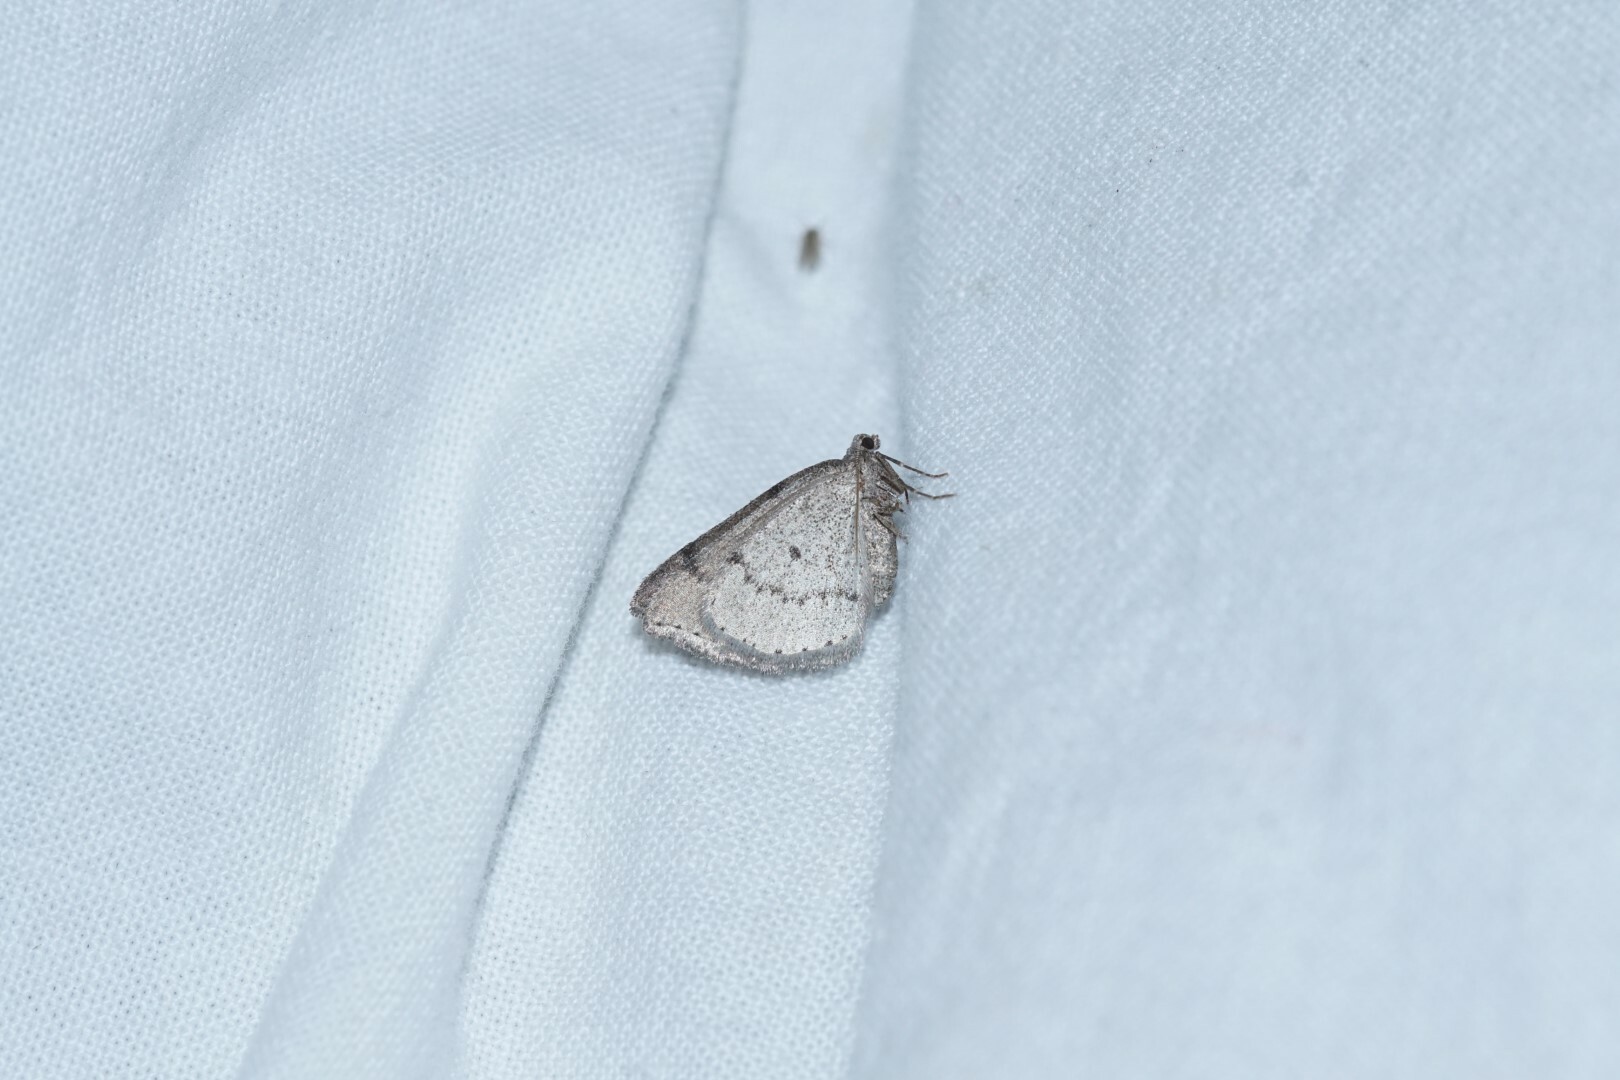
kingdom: Animalia
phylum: Arthropoda
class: Insecta
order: Lepidoptera
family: Geometridae
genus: Aleucis
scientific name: Aleucis distinctata
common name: Sloe carpet
